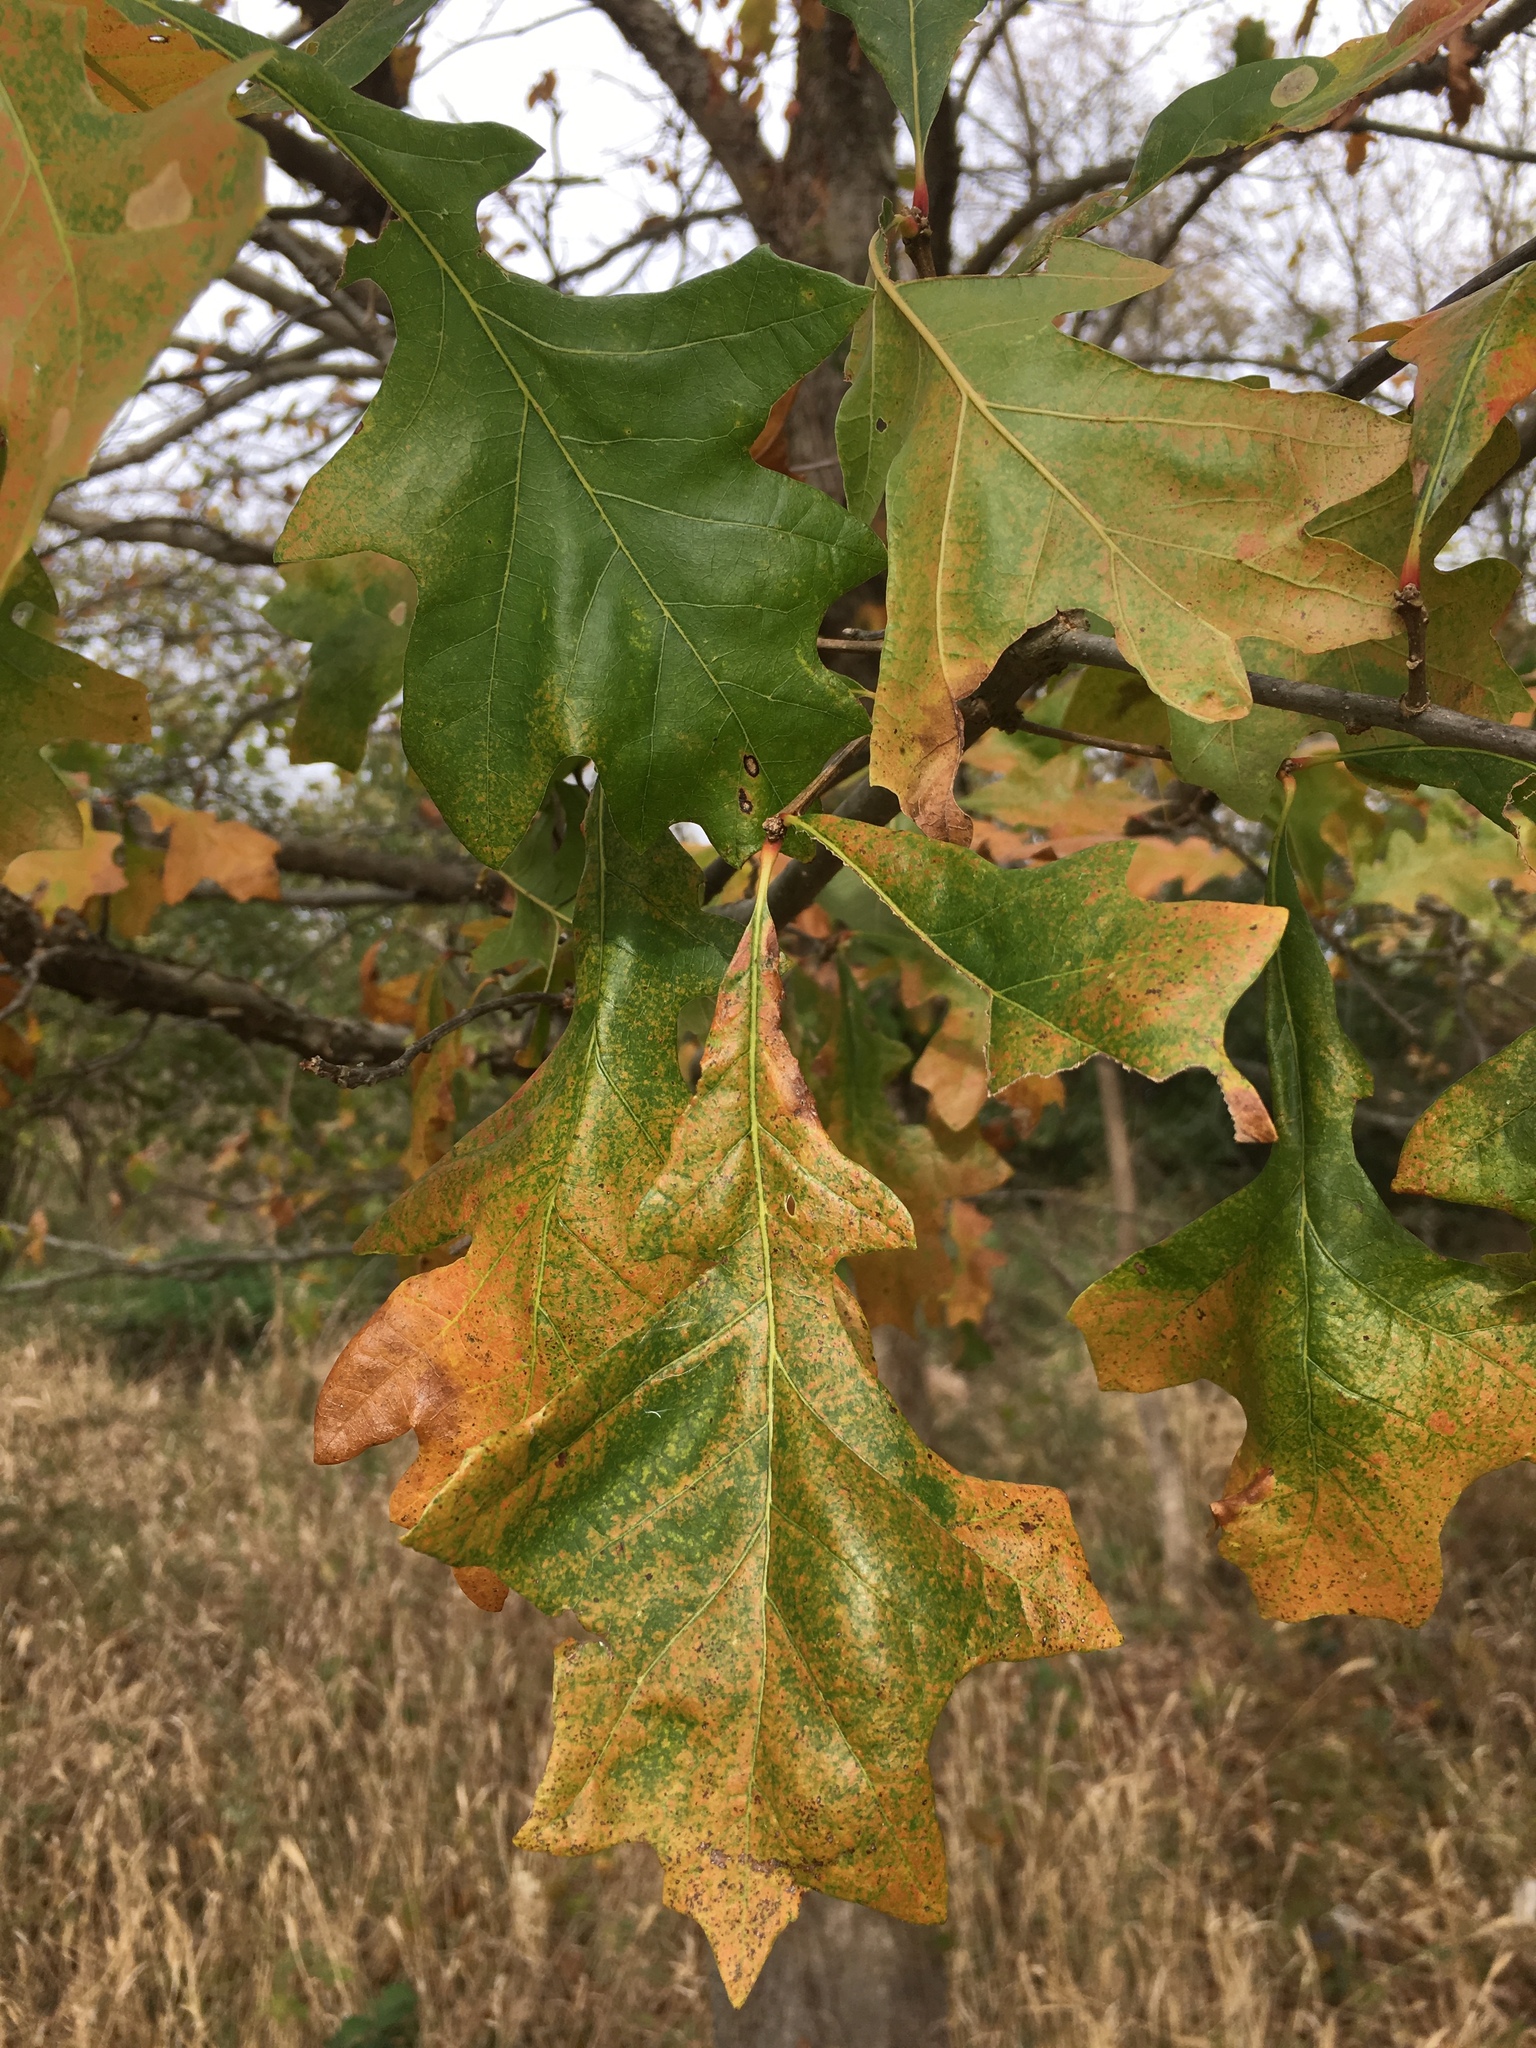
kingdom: Plantae
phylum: Tracheophyta
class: Magnoliopsida
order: Fagales
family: Fagaceae
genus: Quercus
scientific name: Quercus macrocarpa
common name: Bur oak
